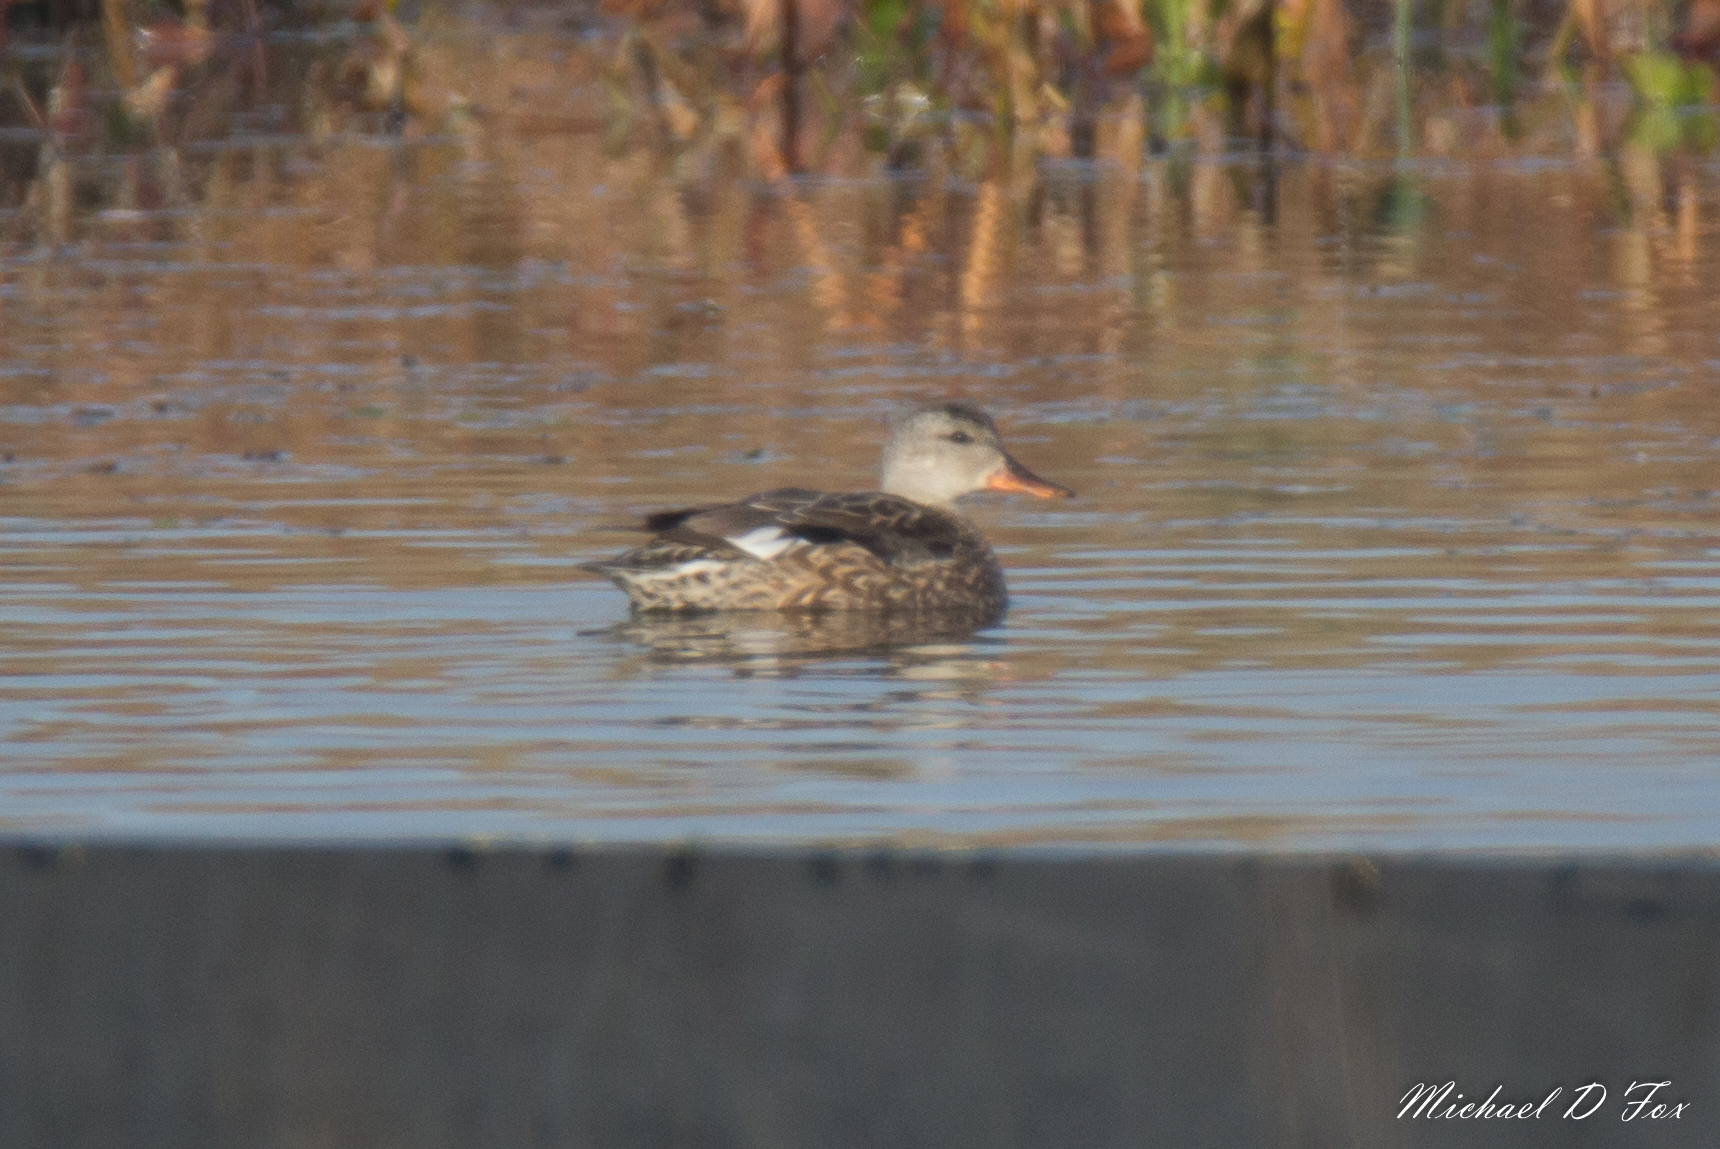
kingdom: Animalia
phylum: Chordata
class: Aves
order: Anseriformes
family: Anatidae
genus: Mareca
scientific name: Mareca strepera
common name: Gadwall
